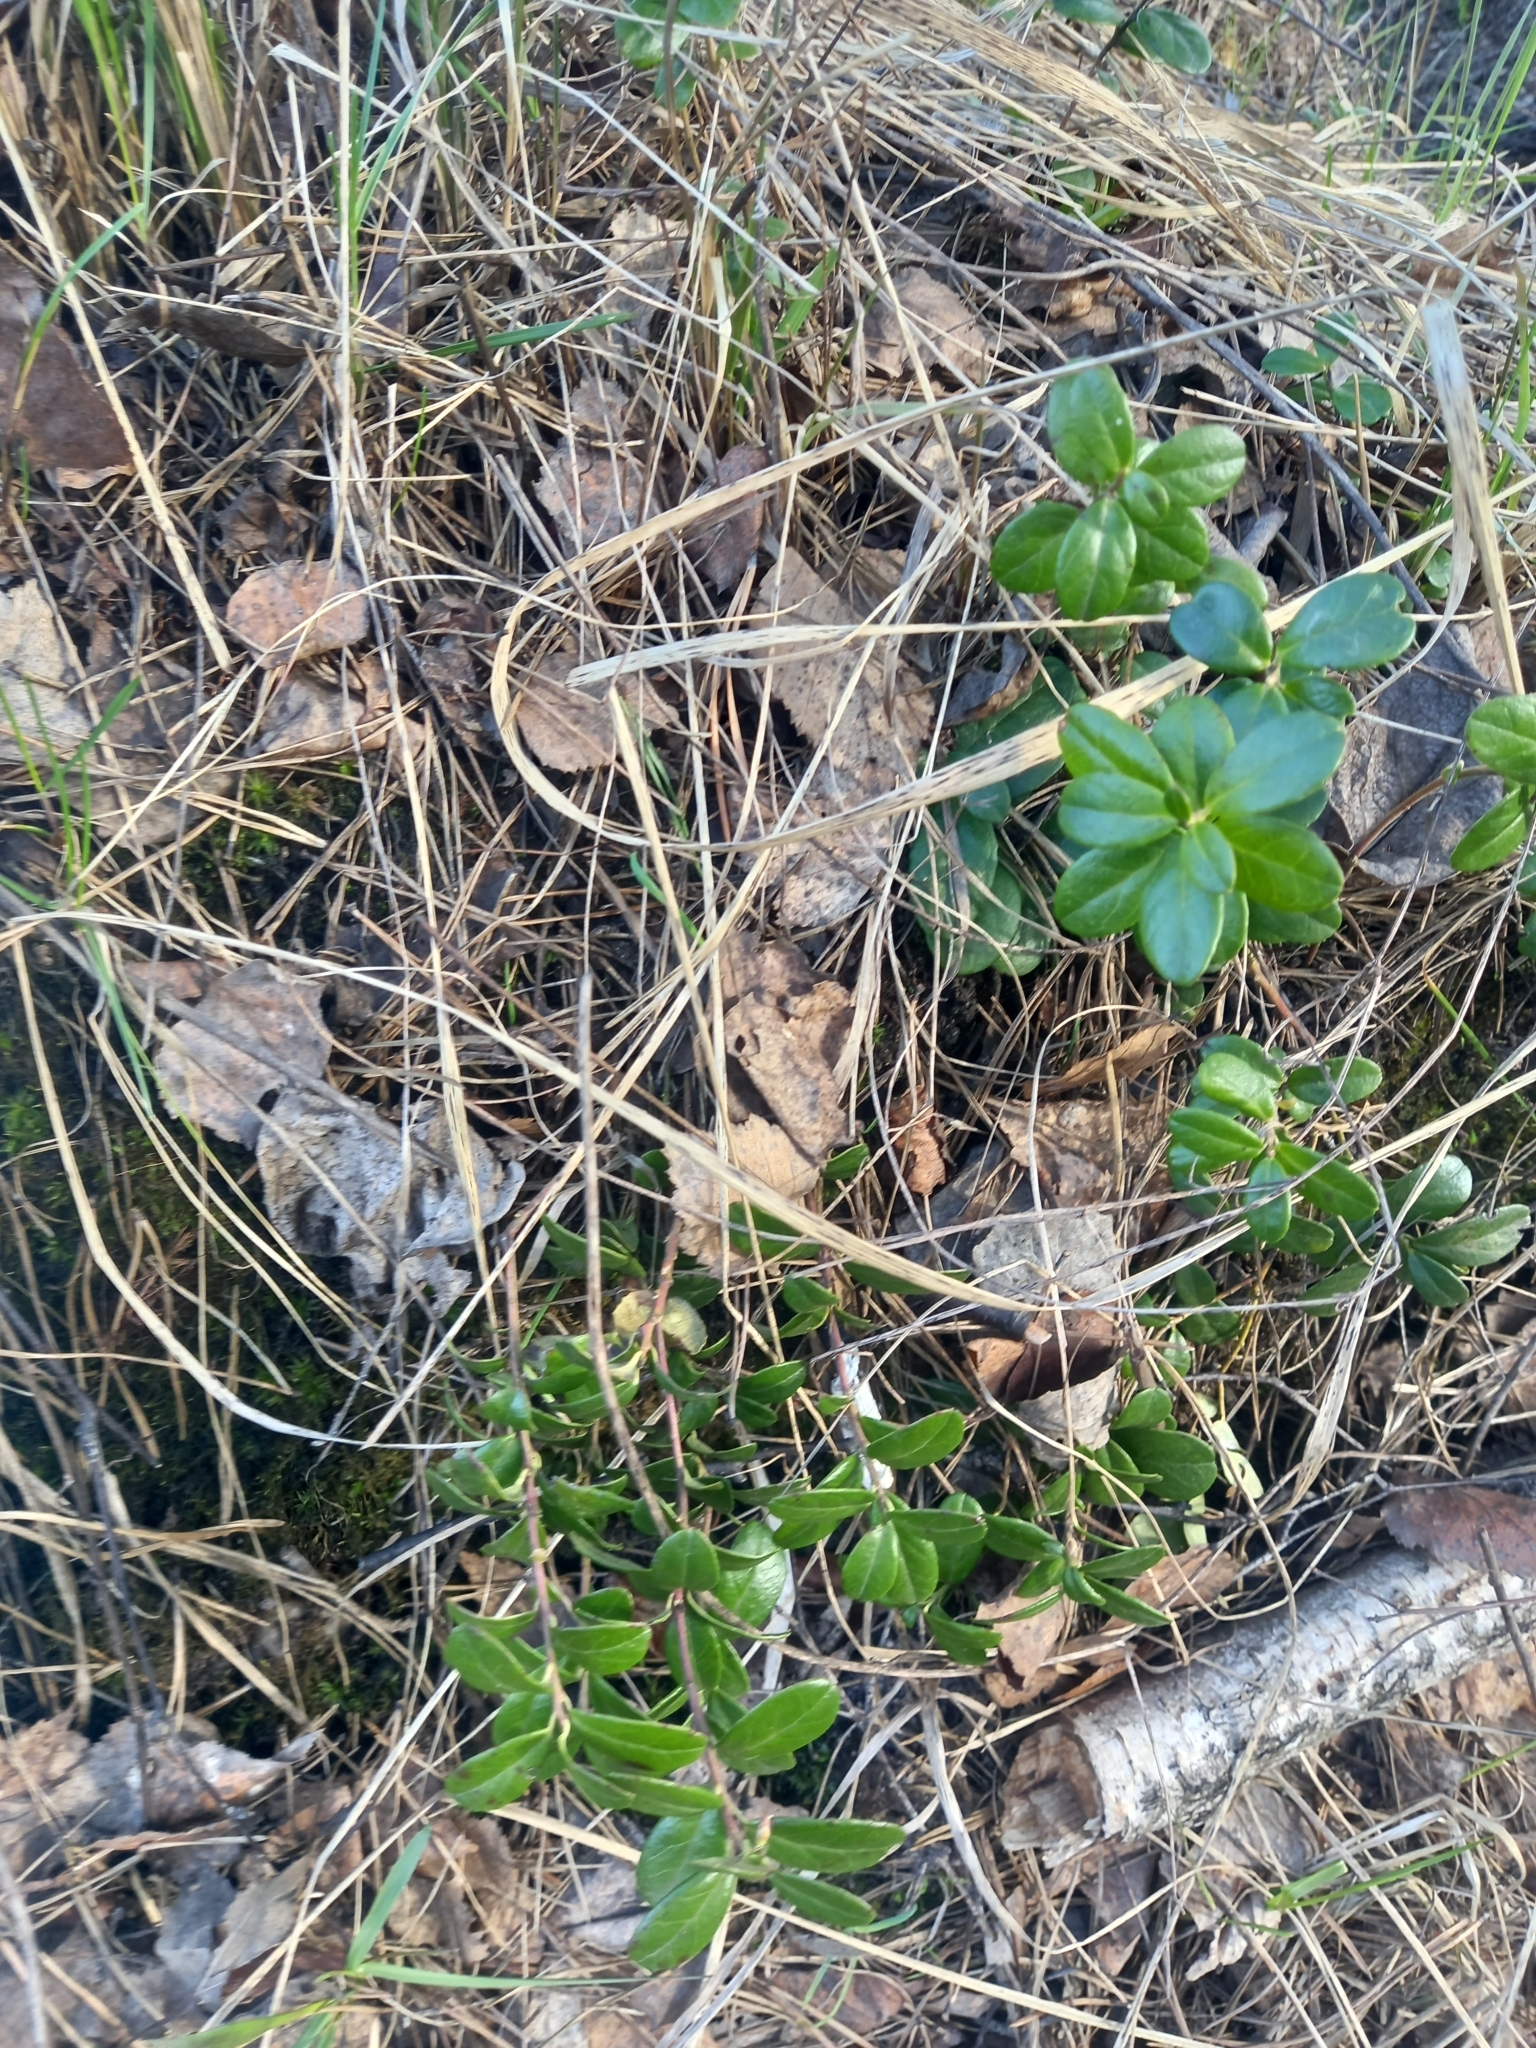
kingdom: Plantae
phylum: Tracheophyta
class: Magnoliopsida
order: Ericales
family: Ericaceae
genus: Vaccinium
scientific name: Vaccinium vitis-idaea
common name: Cowberry
